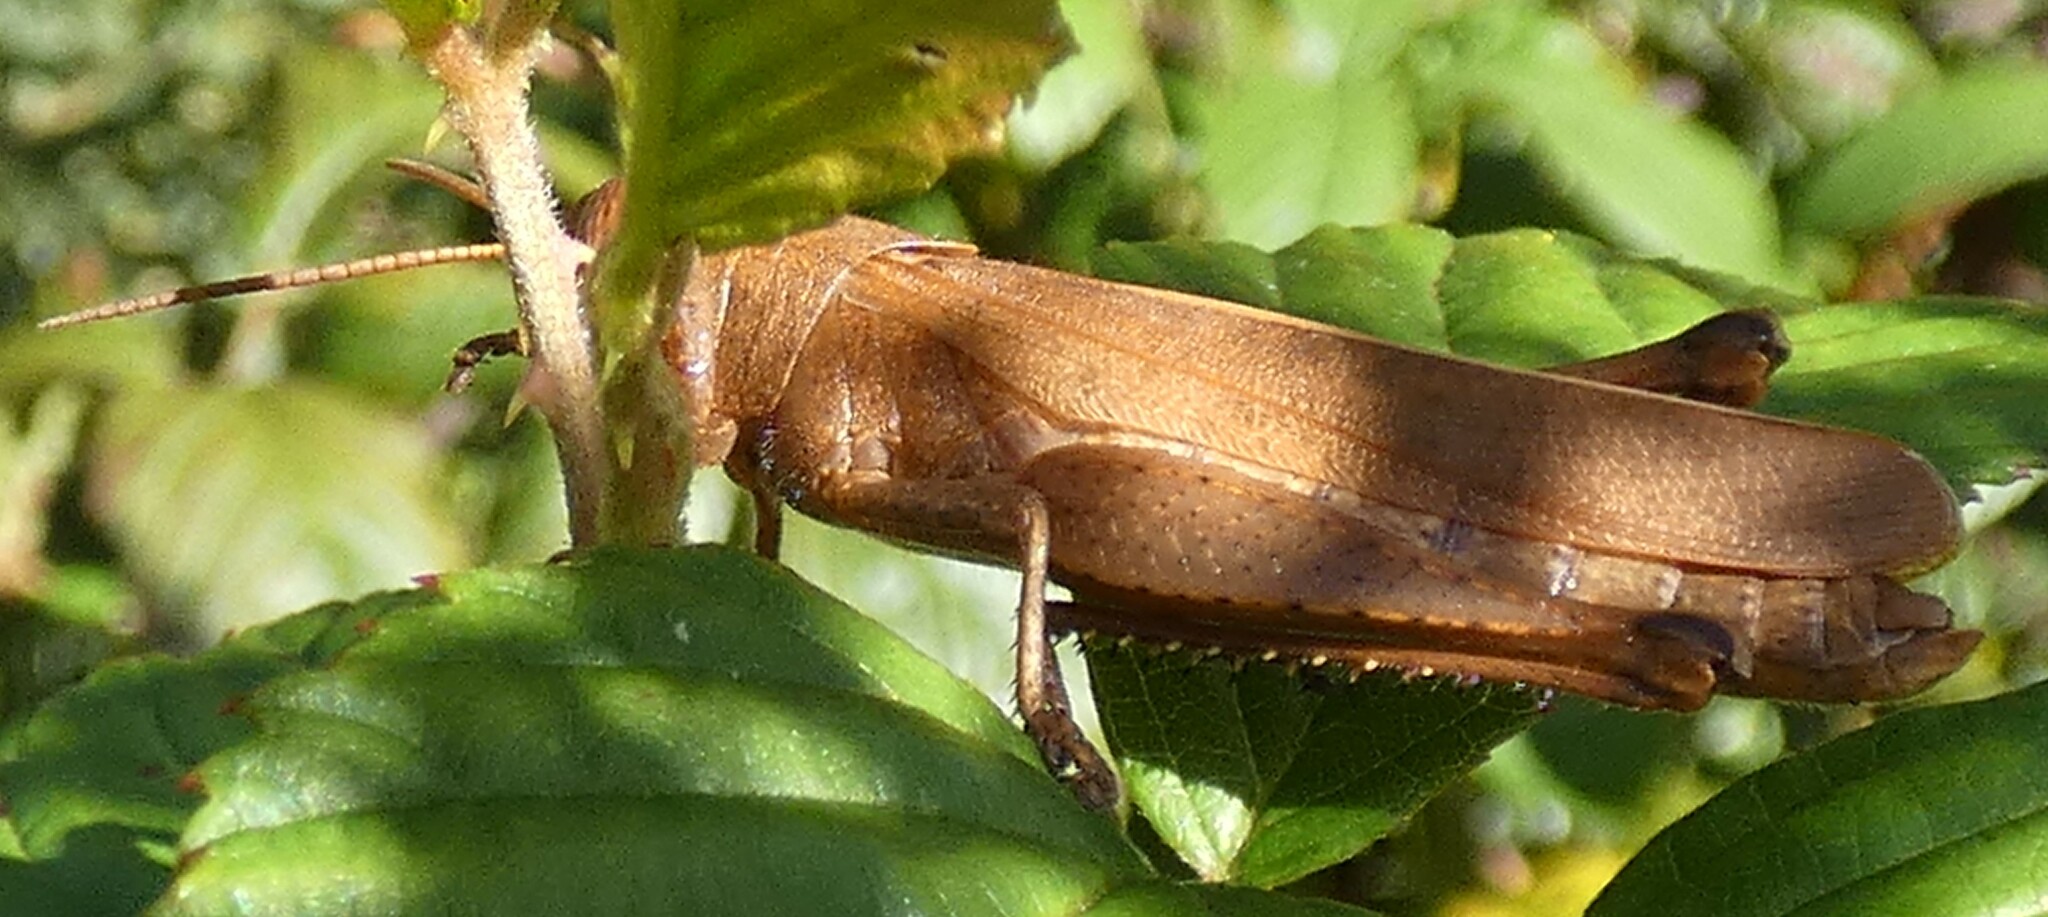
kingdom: Animalia
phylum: Arthropoda
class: Insecta
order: Orthoptera
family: Acrididae
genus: Schistocerca
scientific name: Schistocerca damnifica
